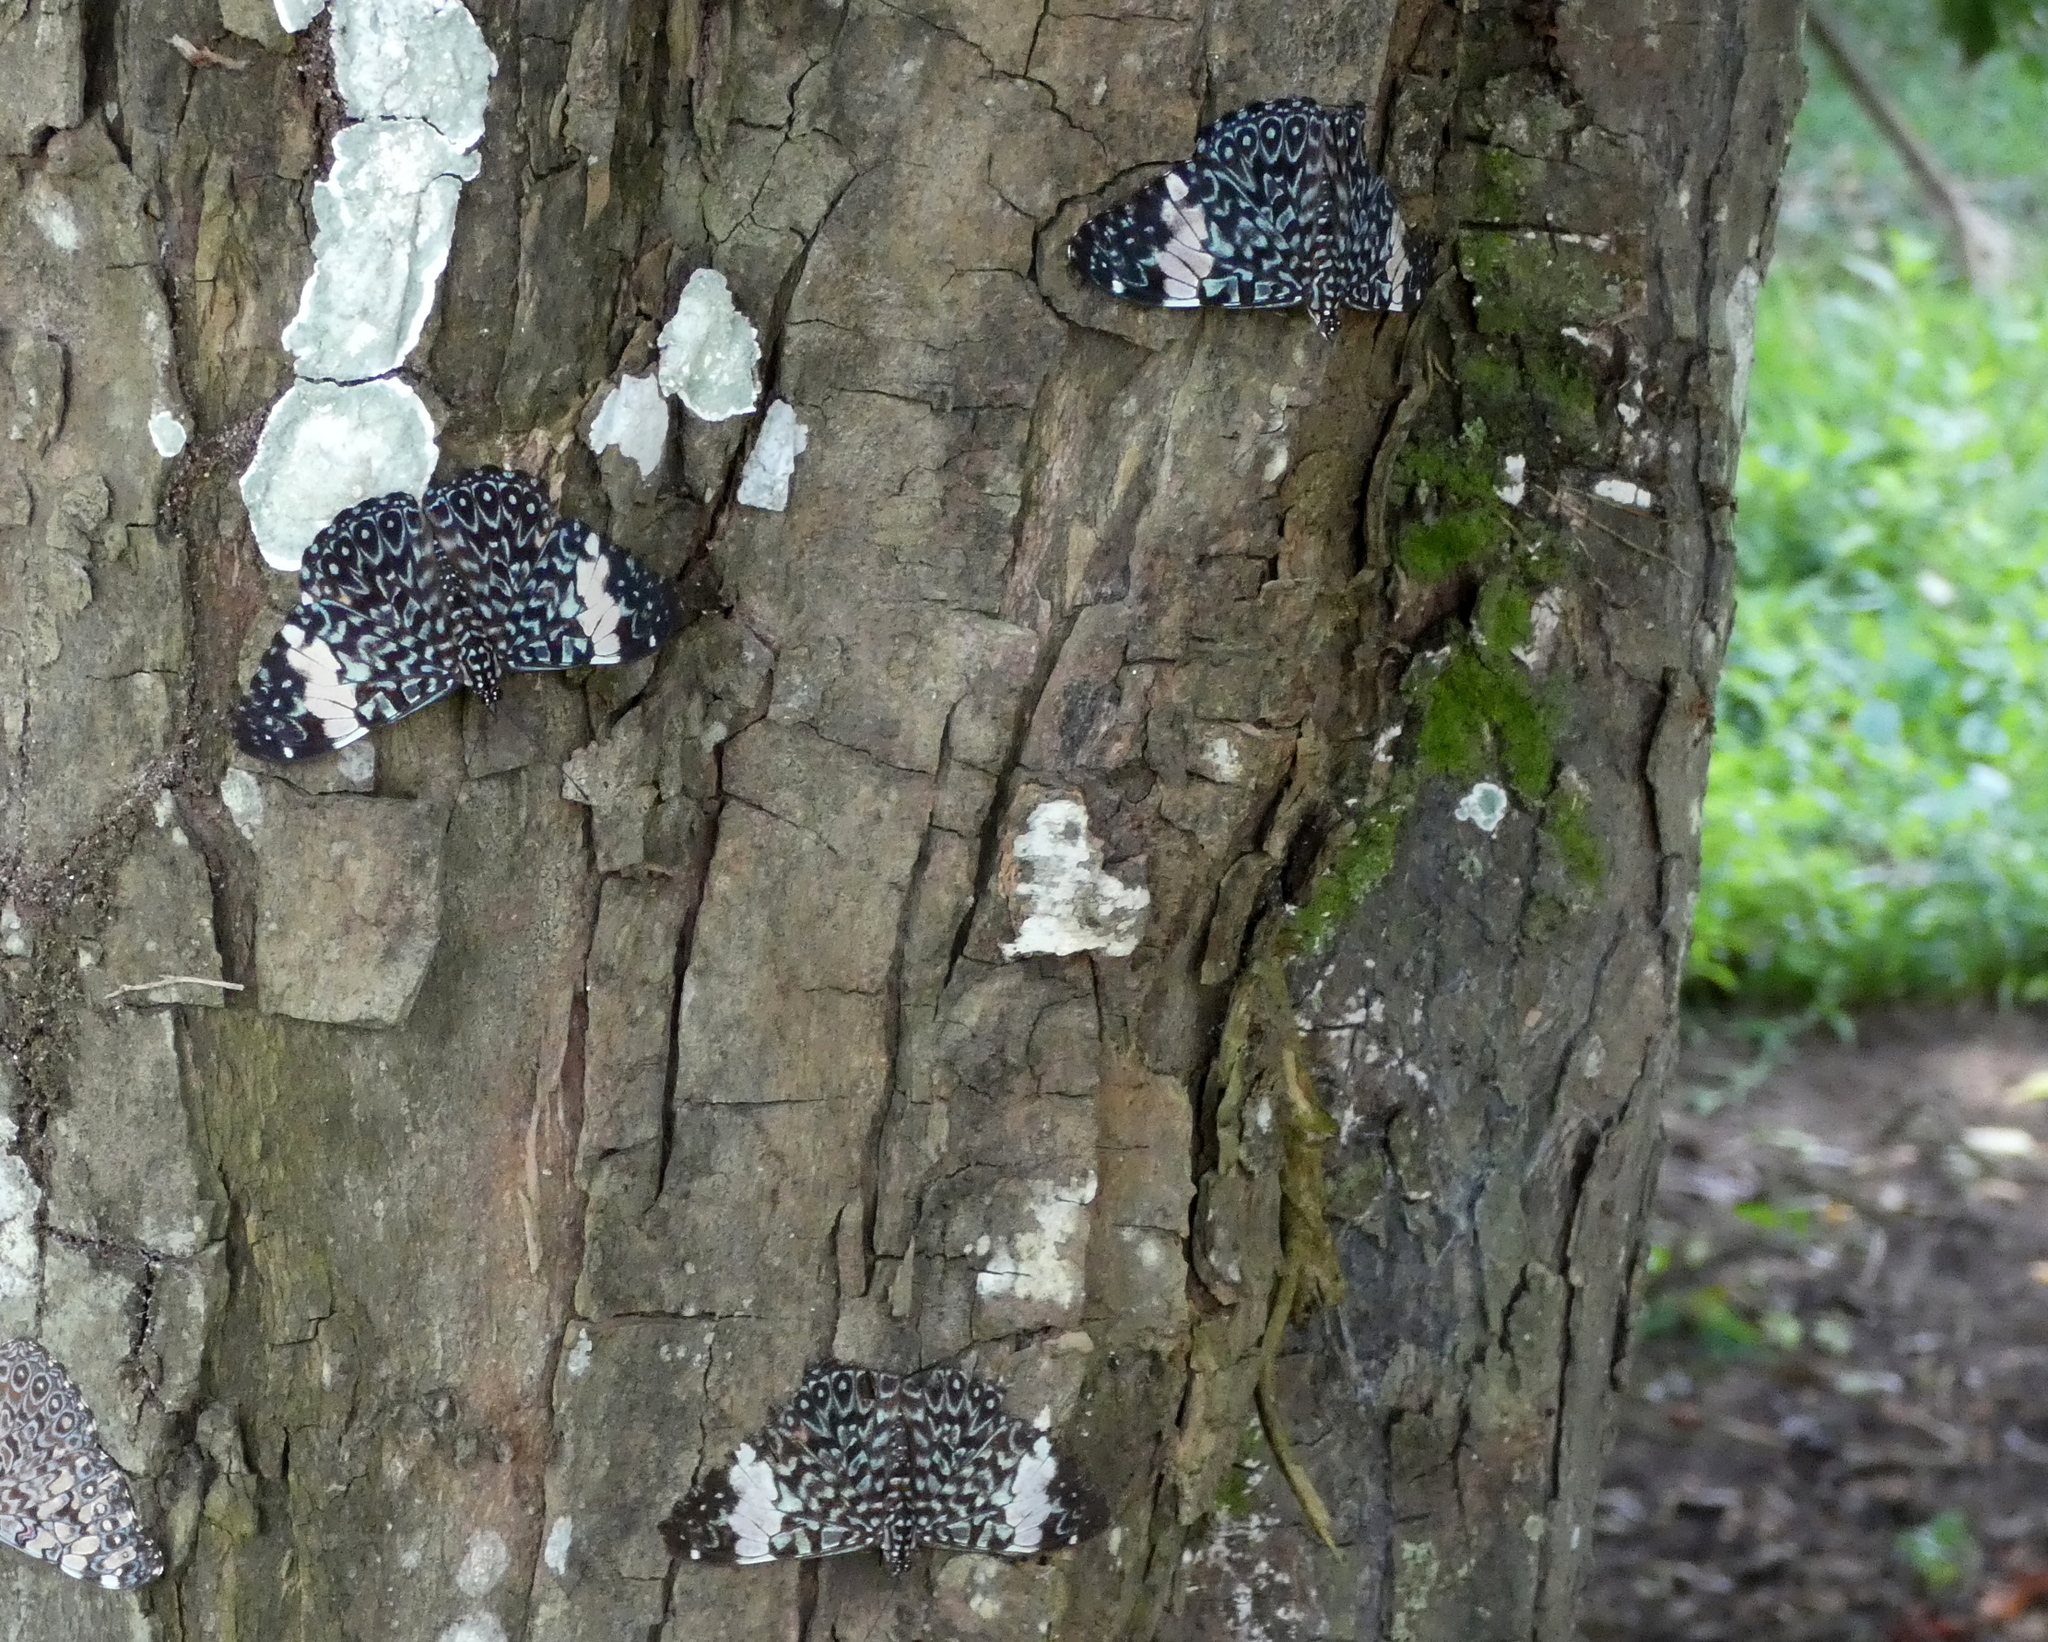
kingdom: Animalia
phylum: Arthropoda
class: Insecta
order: Lepidoptera
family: Nymphalidae
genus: Hamadryas
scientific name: Hamadryas amphinome
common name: Red cracker
